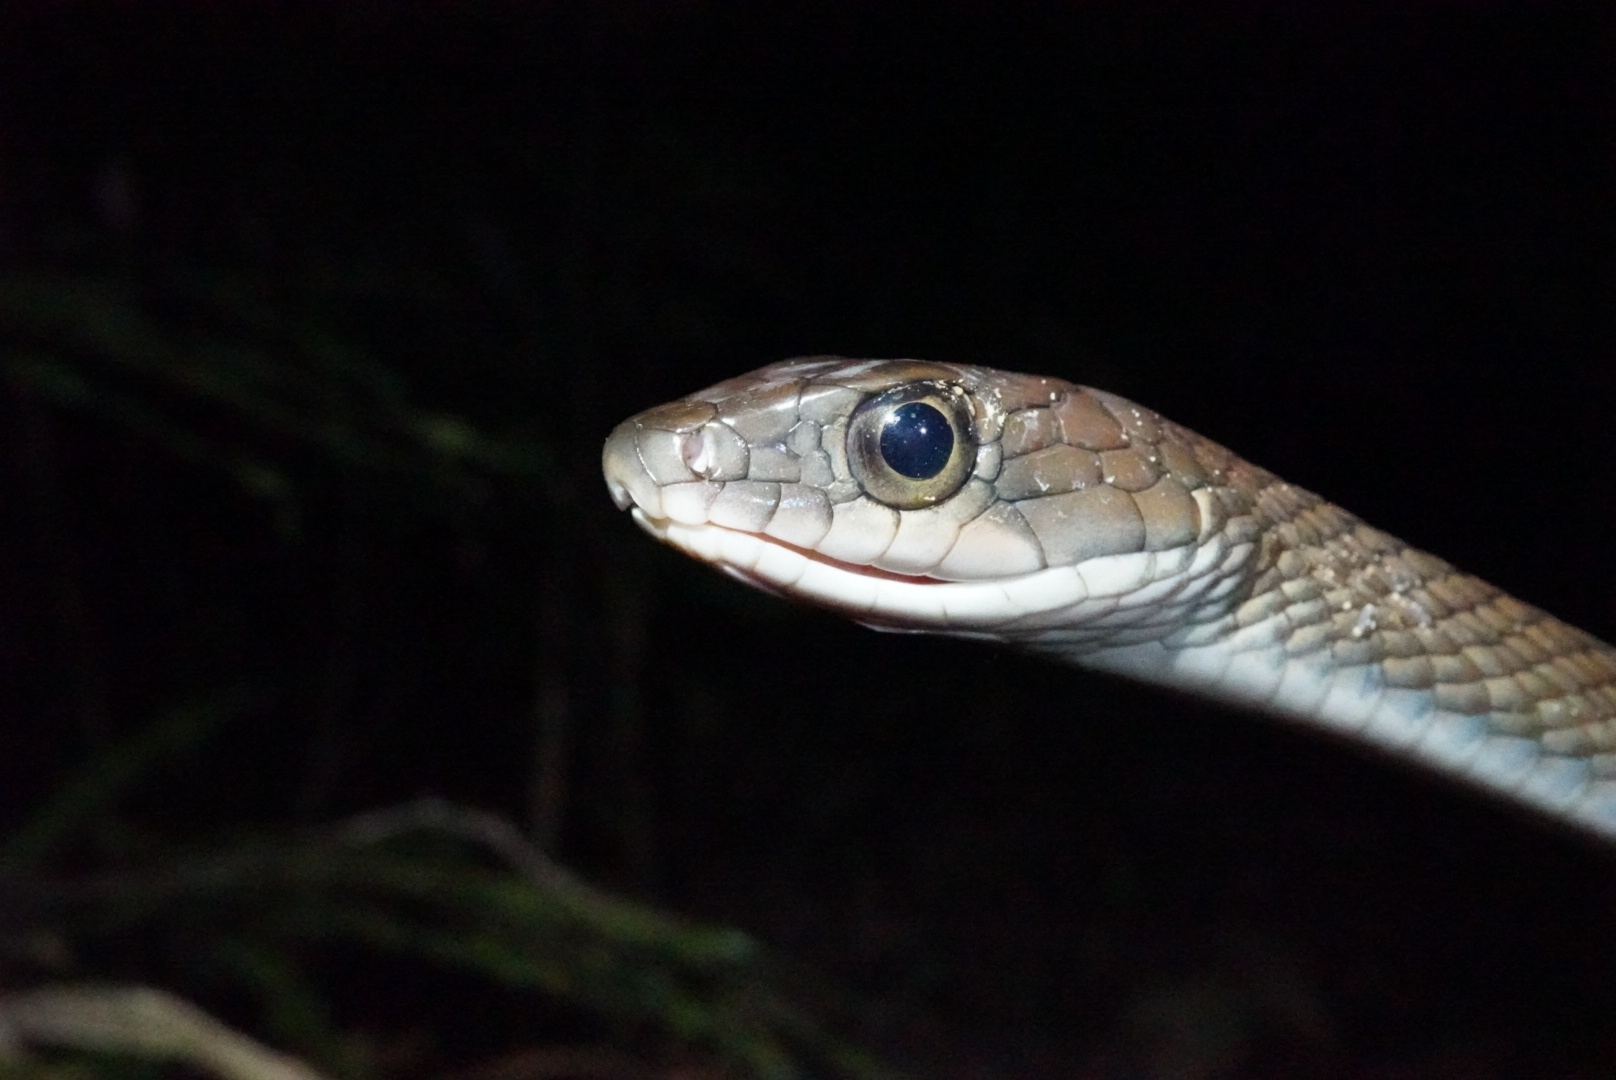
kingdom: Animalia
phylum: Chordata
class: Squamata
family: Colubridae
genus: Ptyas
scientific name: Ptyas fusca
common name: White-bellied rat snake
